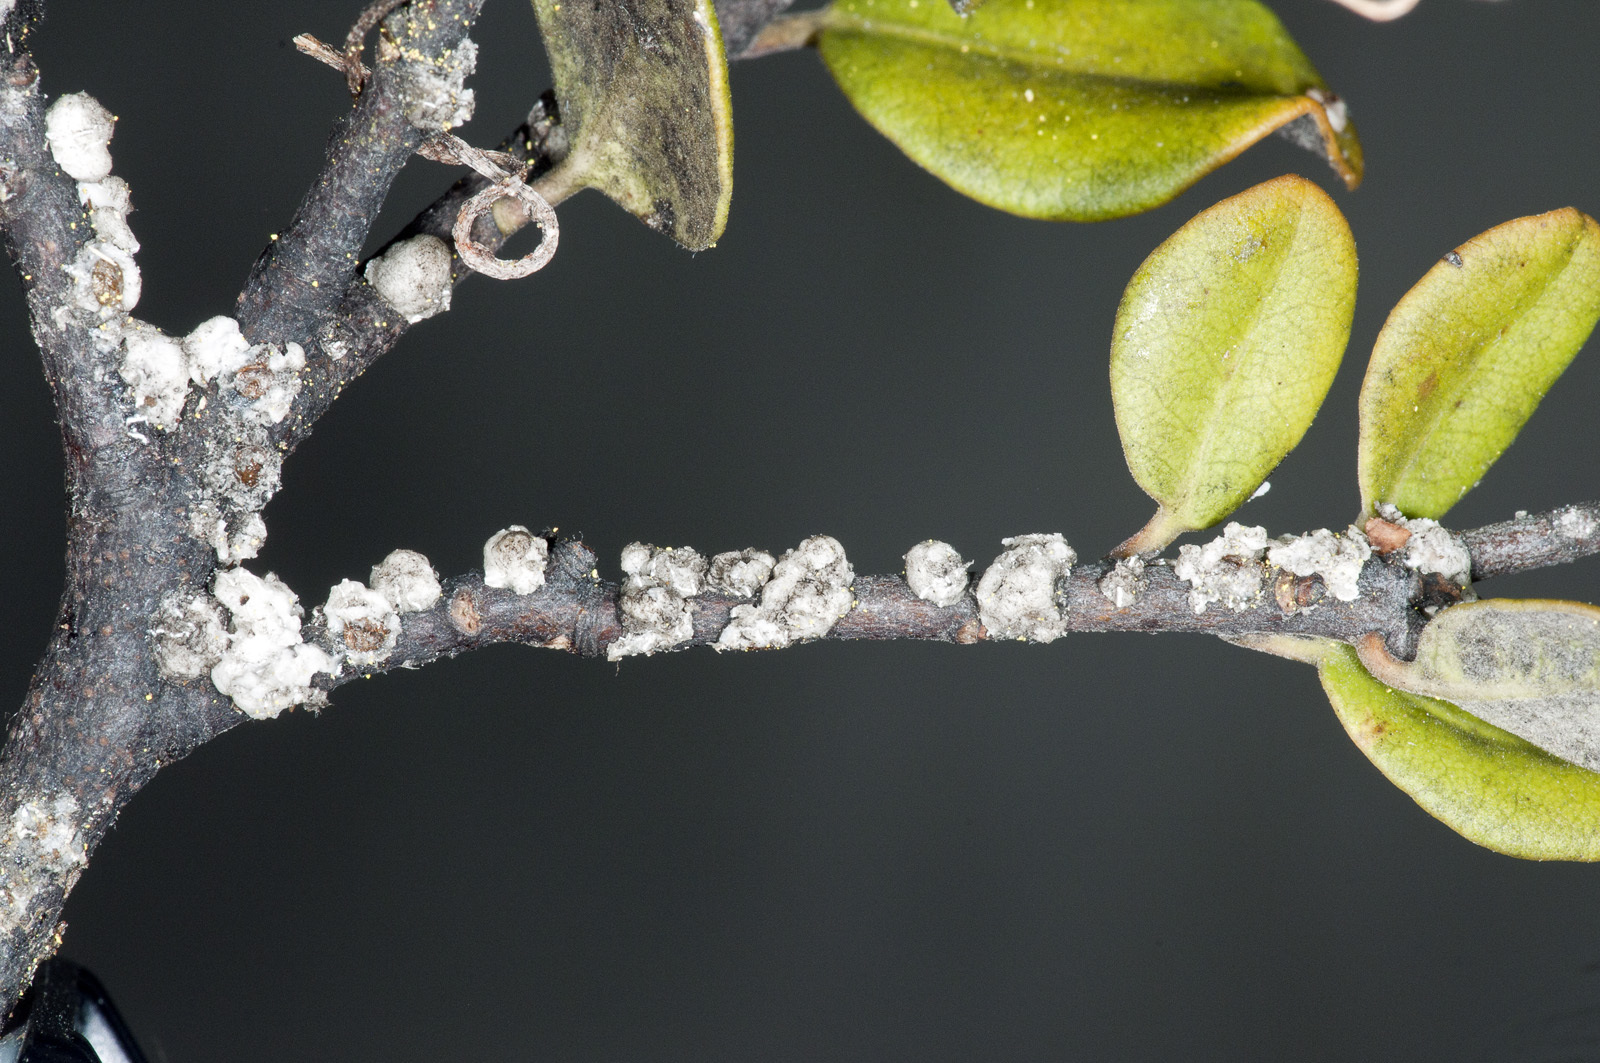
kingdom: Animalia
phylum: Arthropoda
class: Insecta
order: Hemiptera
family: Coccidae
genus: Ceroplastes
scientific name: Ceroplastes destructor
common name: Indian wax scale
